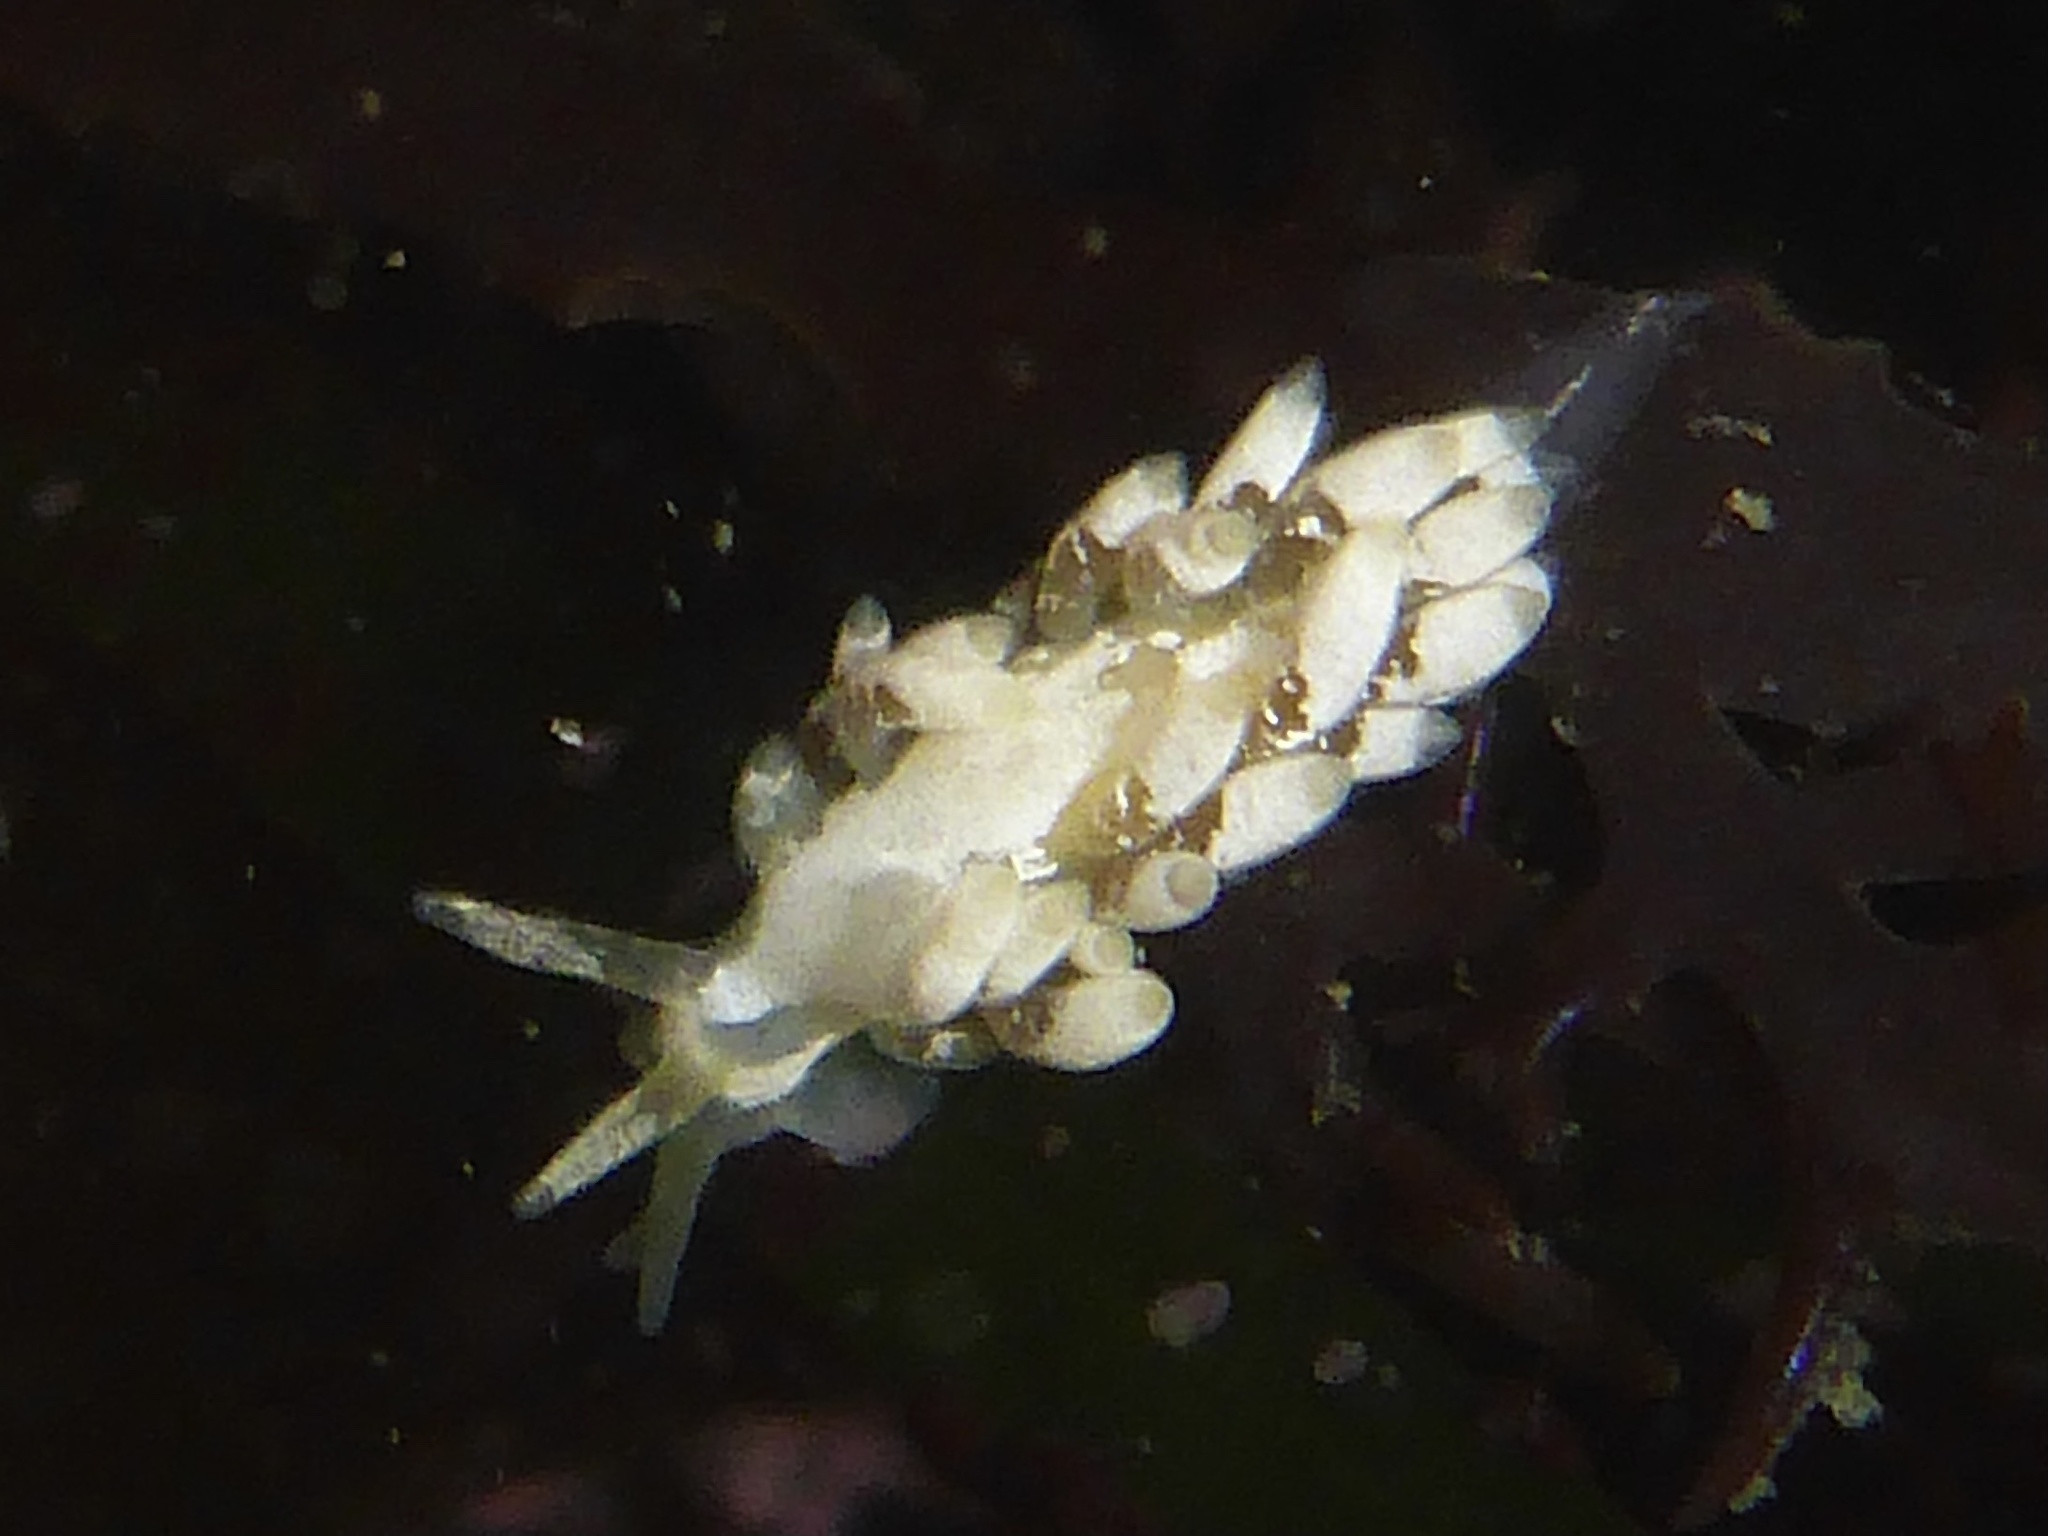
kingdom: Animalia
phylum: Mollusca
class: Gastropoda
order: Nudibranchia
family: Trinchesiidae
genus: Trinchesia
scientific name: Trinchesia albocrusta
